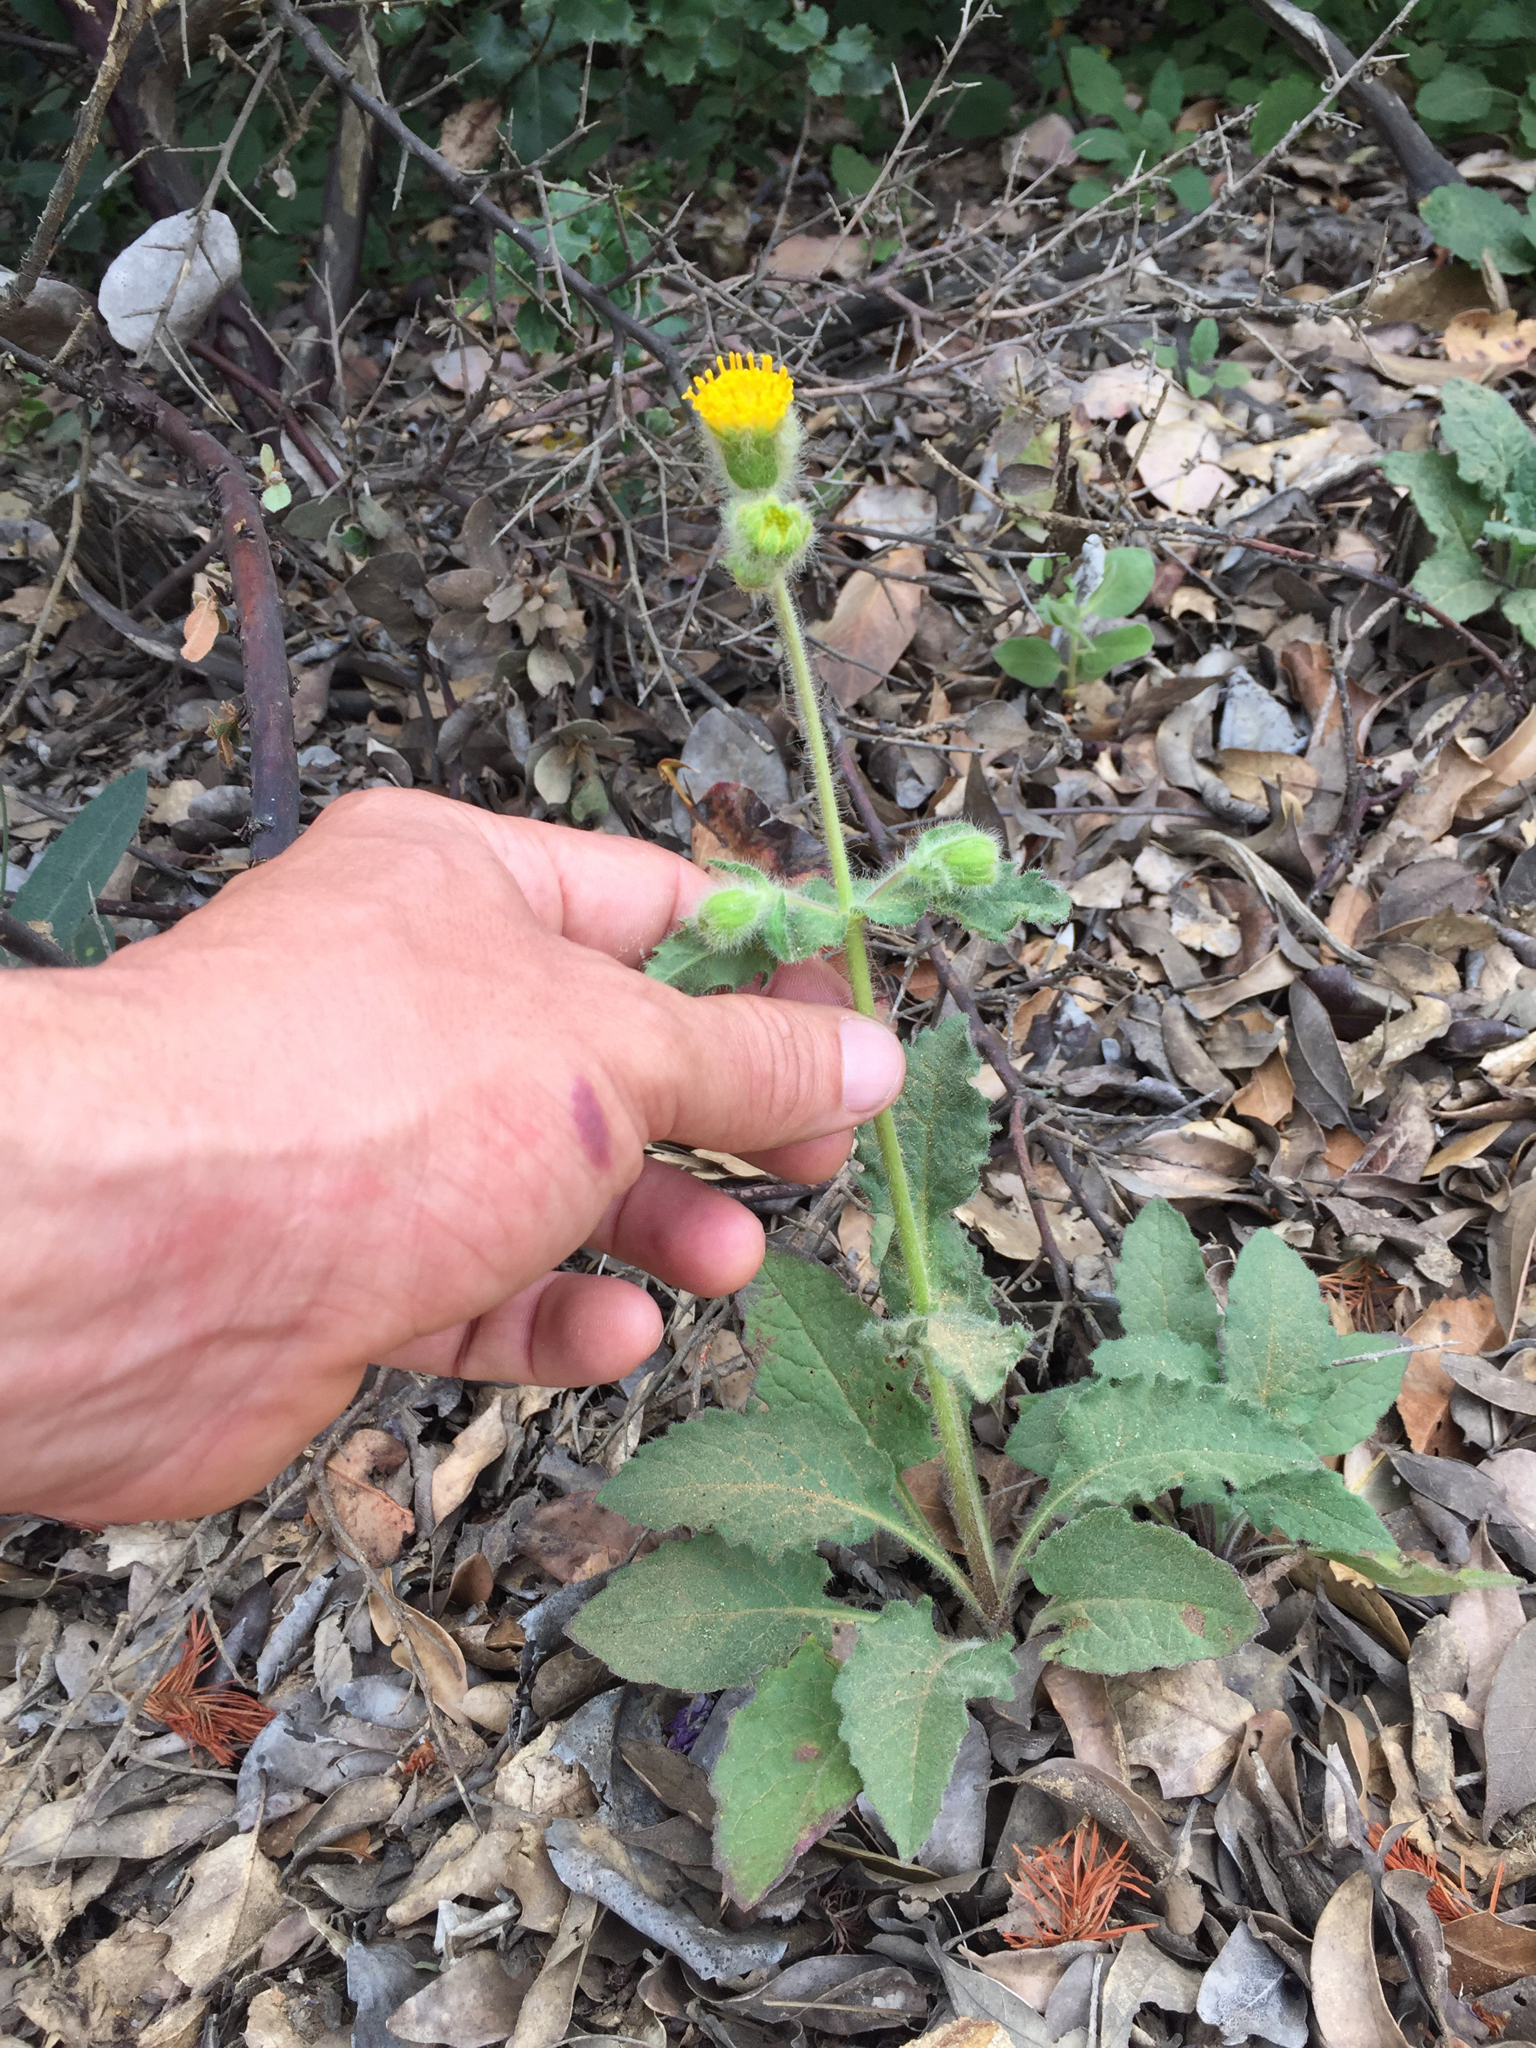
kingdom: Plantae
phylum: Tracheophyta
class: Magnoliopsida
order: Asterales
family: Asteraceae
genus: Arnica
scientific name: Arnica discoidea
